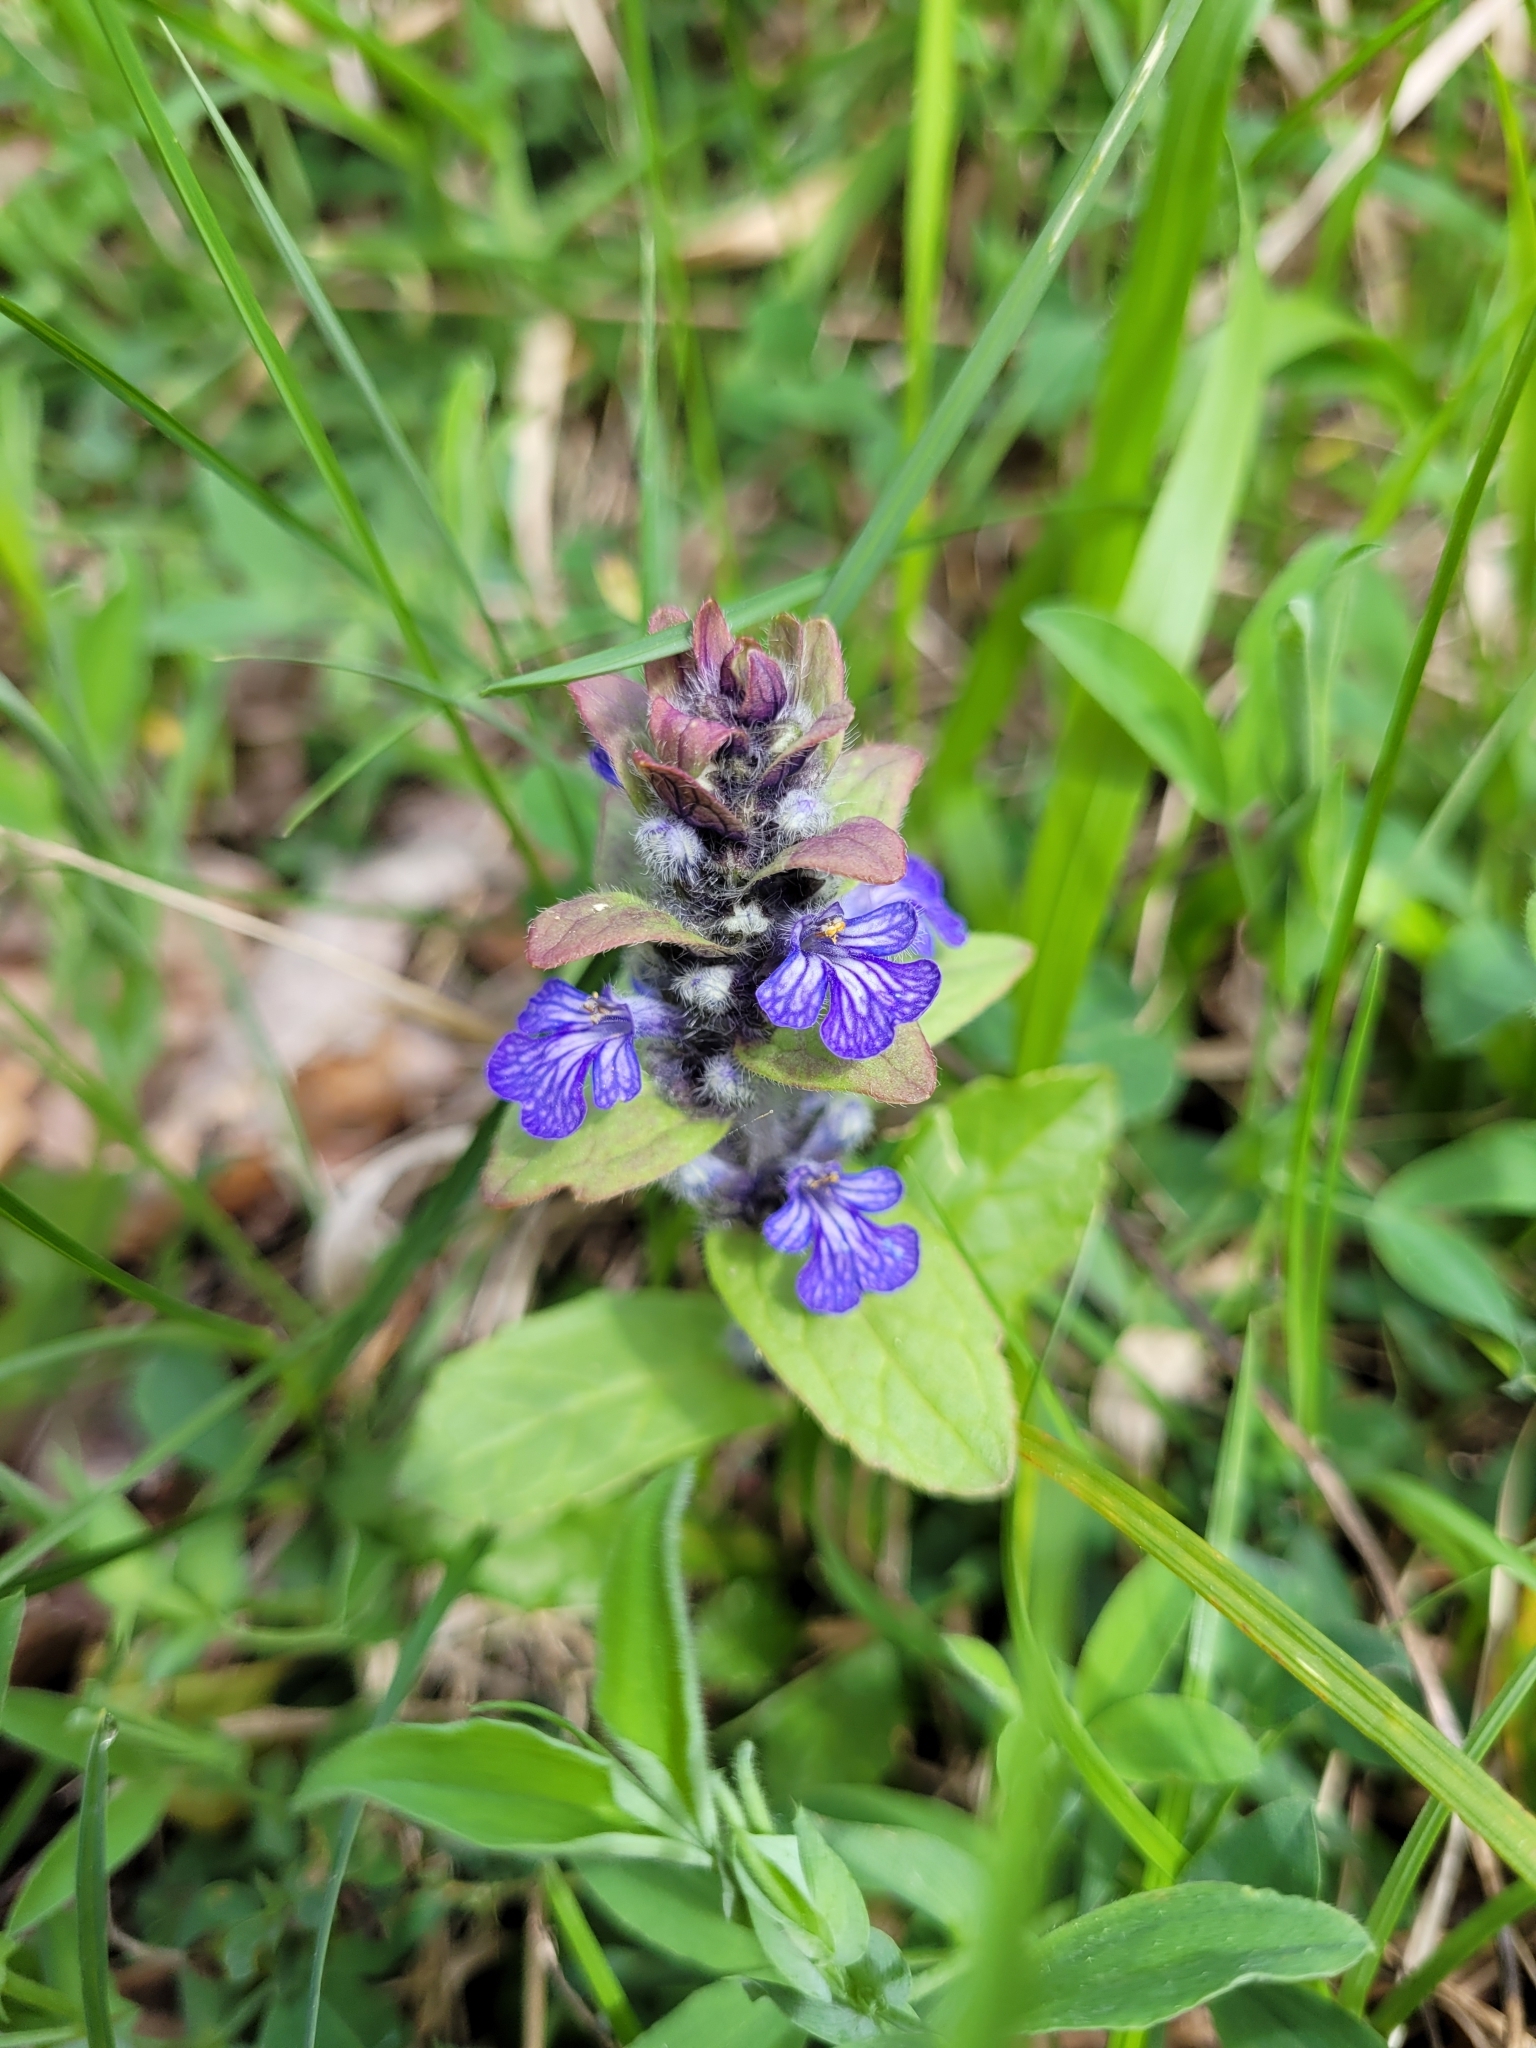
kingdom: Plantae
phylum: Tracheophyta
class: Magnoliopsida
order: Lamiales
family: Lamiaceae
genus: Ajuga
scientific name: Ajuga reptans
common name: Bugle
